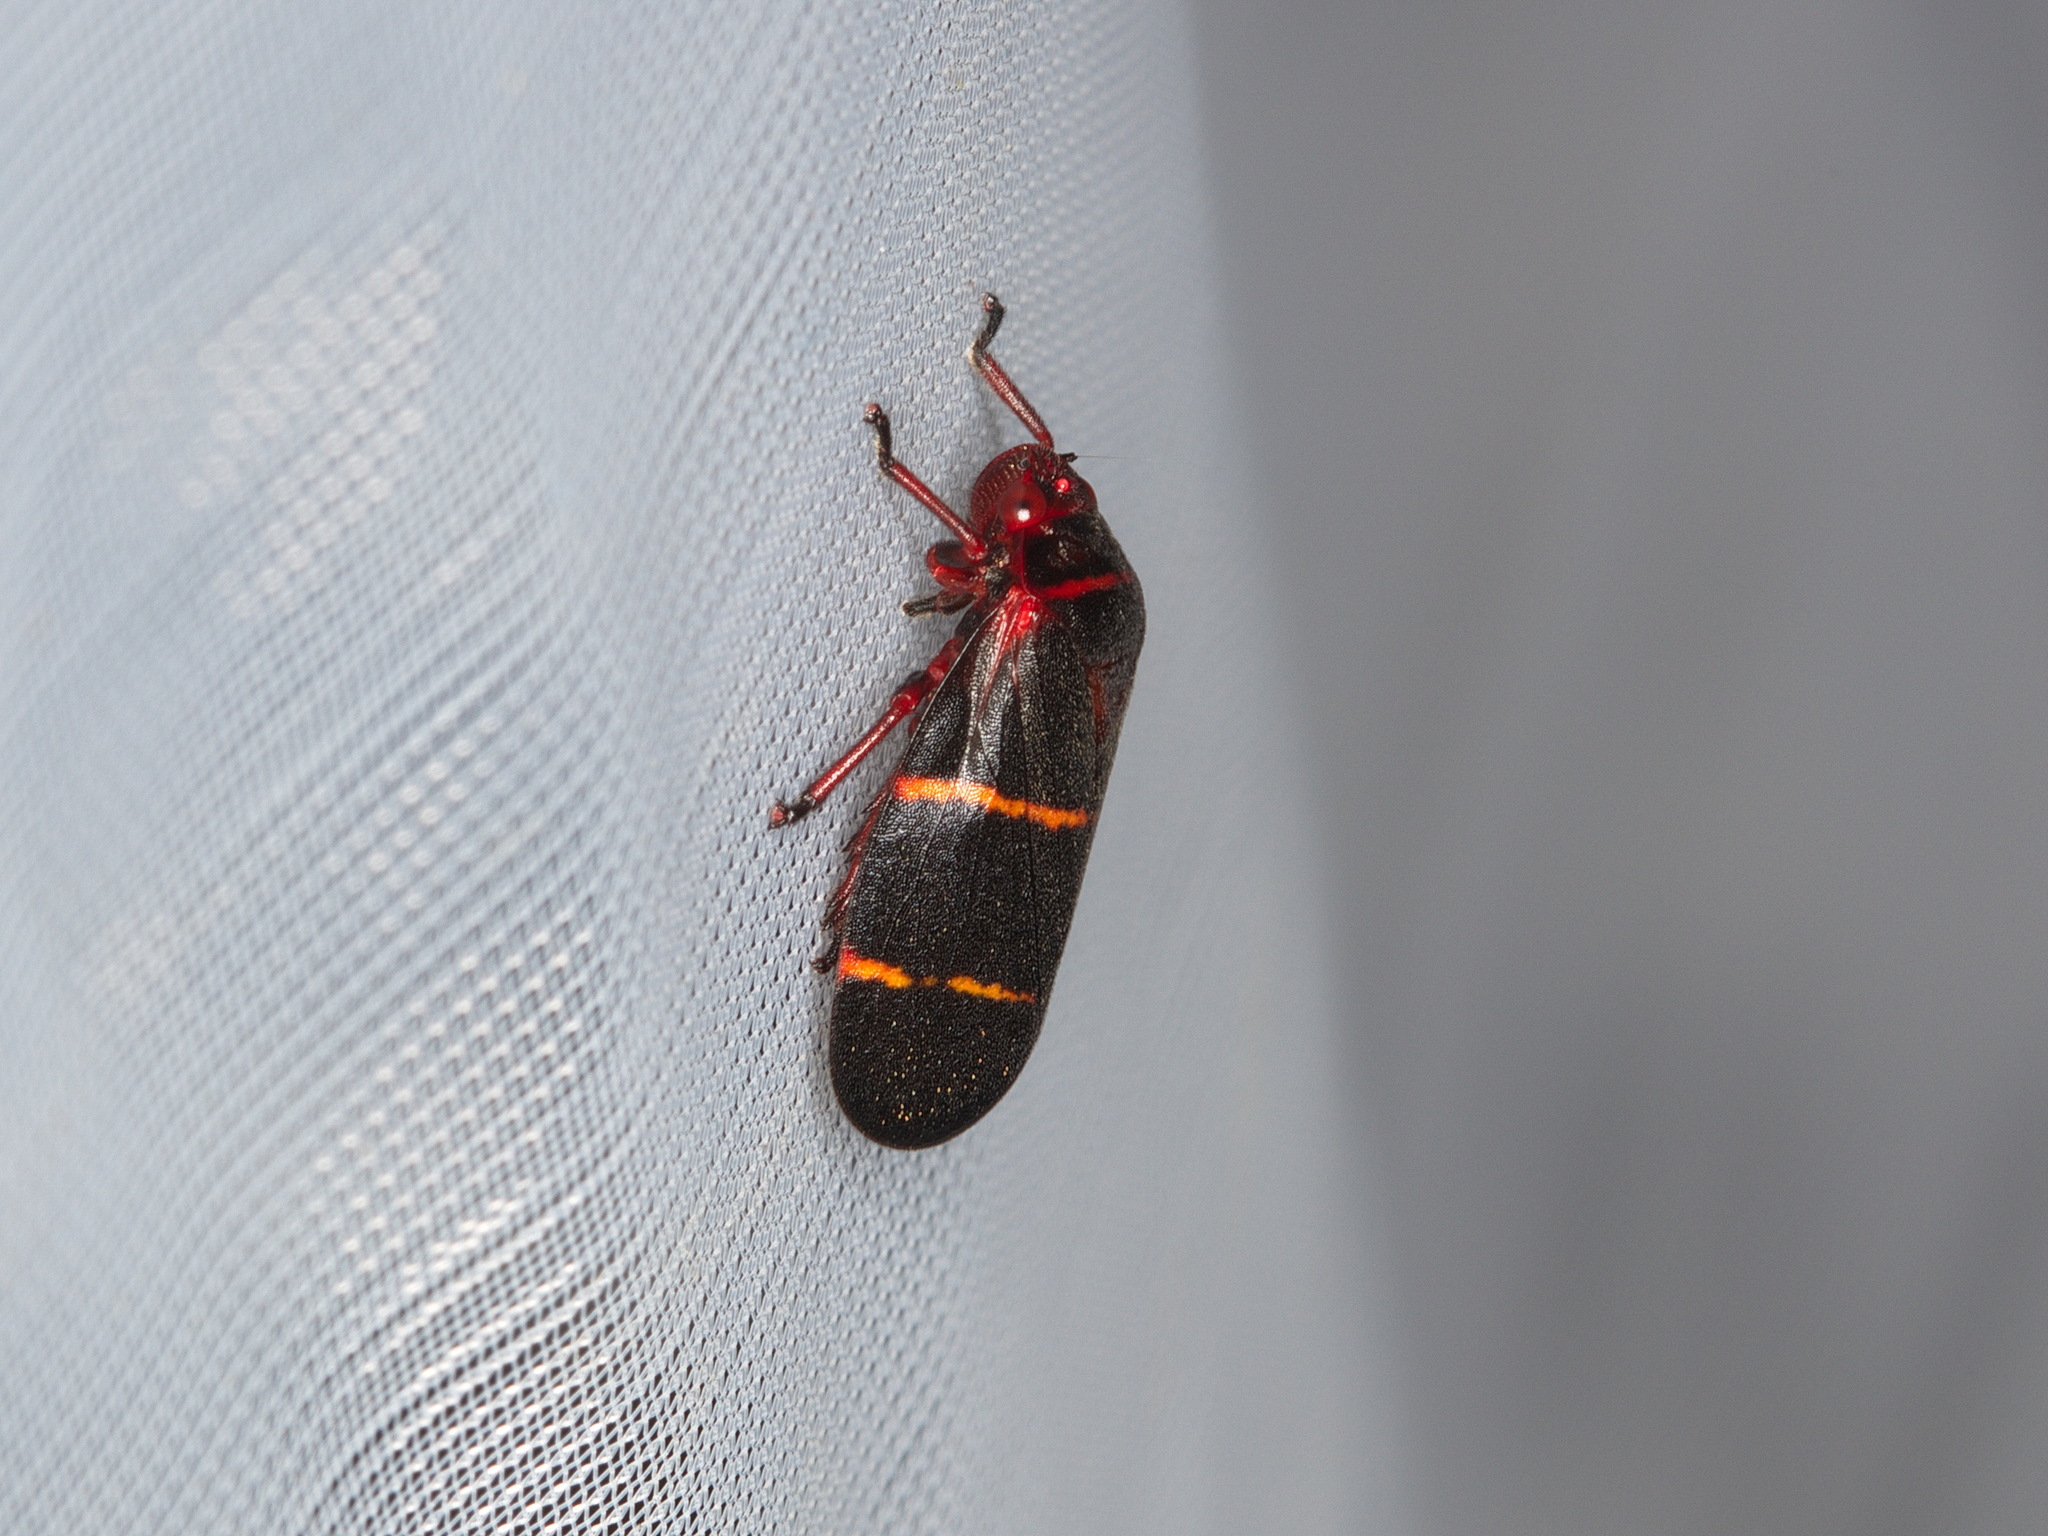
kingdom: Animalia
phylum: Arthropoda
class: Insecta
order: Hemiptera
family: Cercopidae
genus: Prosapia
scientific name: Prosapia bicincta
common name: Twolined spittlebug
